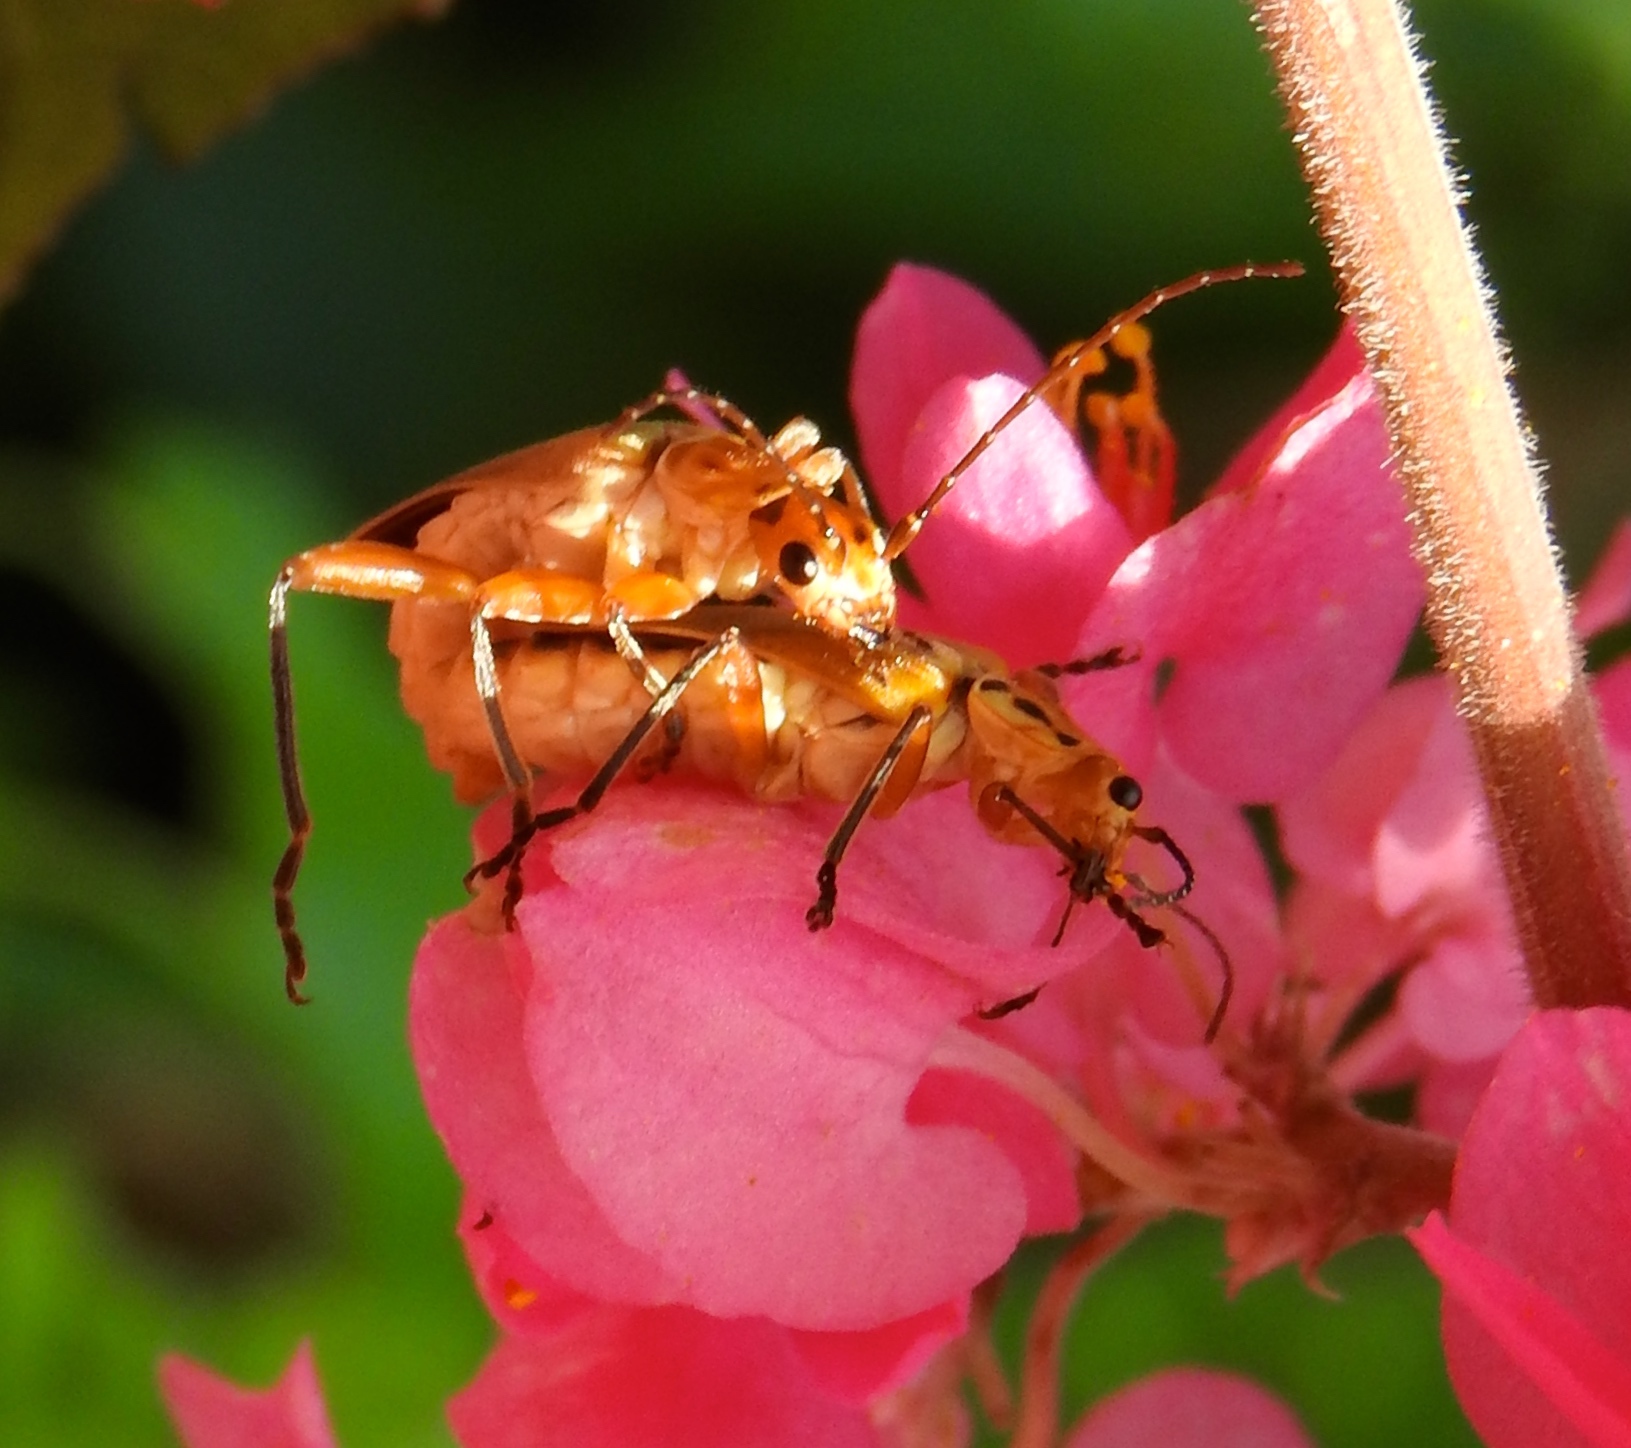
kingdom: Animalia
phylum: Arthropoda
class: Insecta
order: Coleoptera
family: Cantharidae
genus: Chauliognathus
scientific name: Chauliognathus
